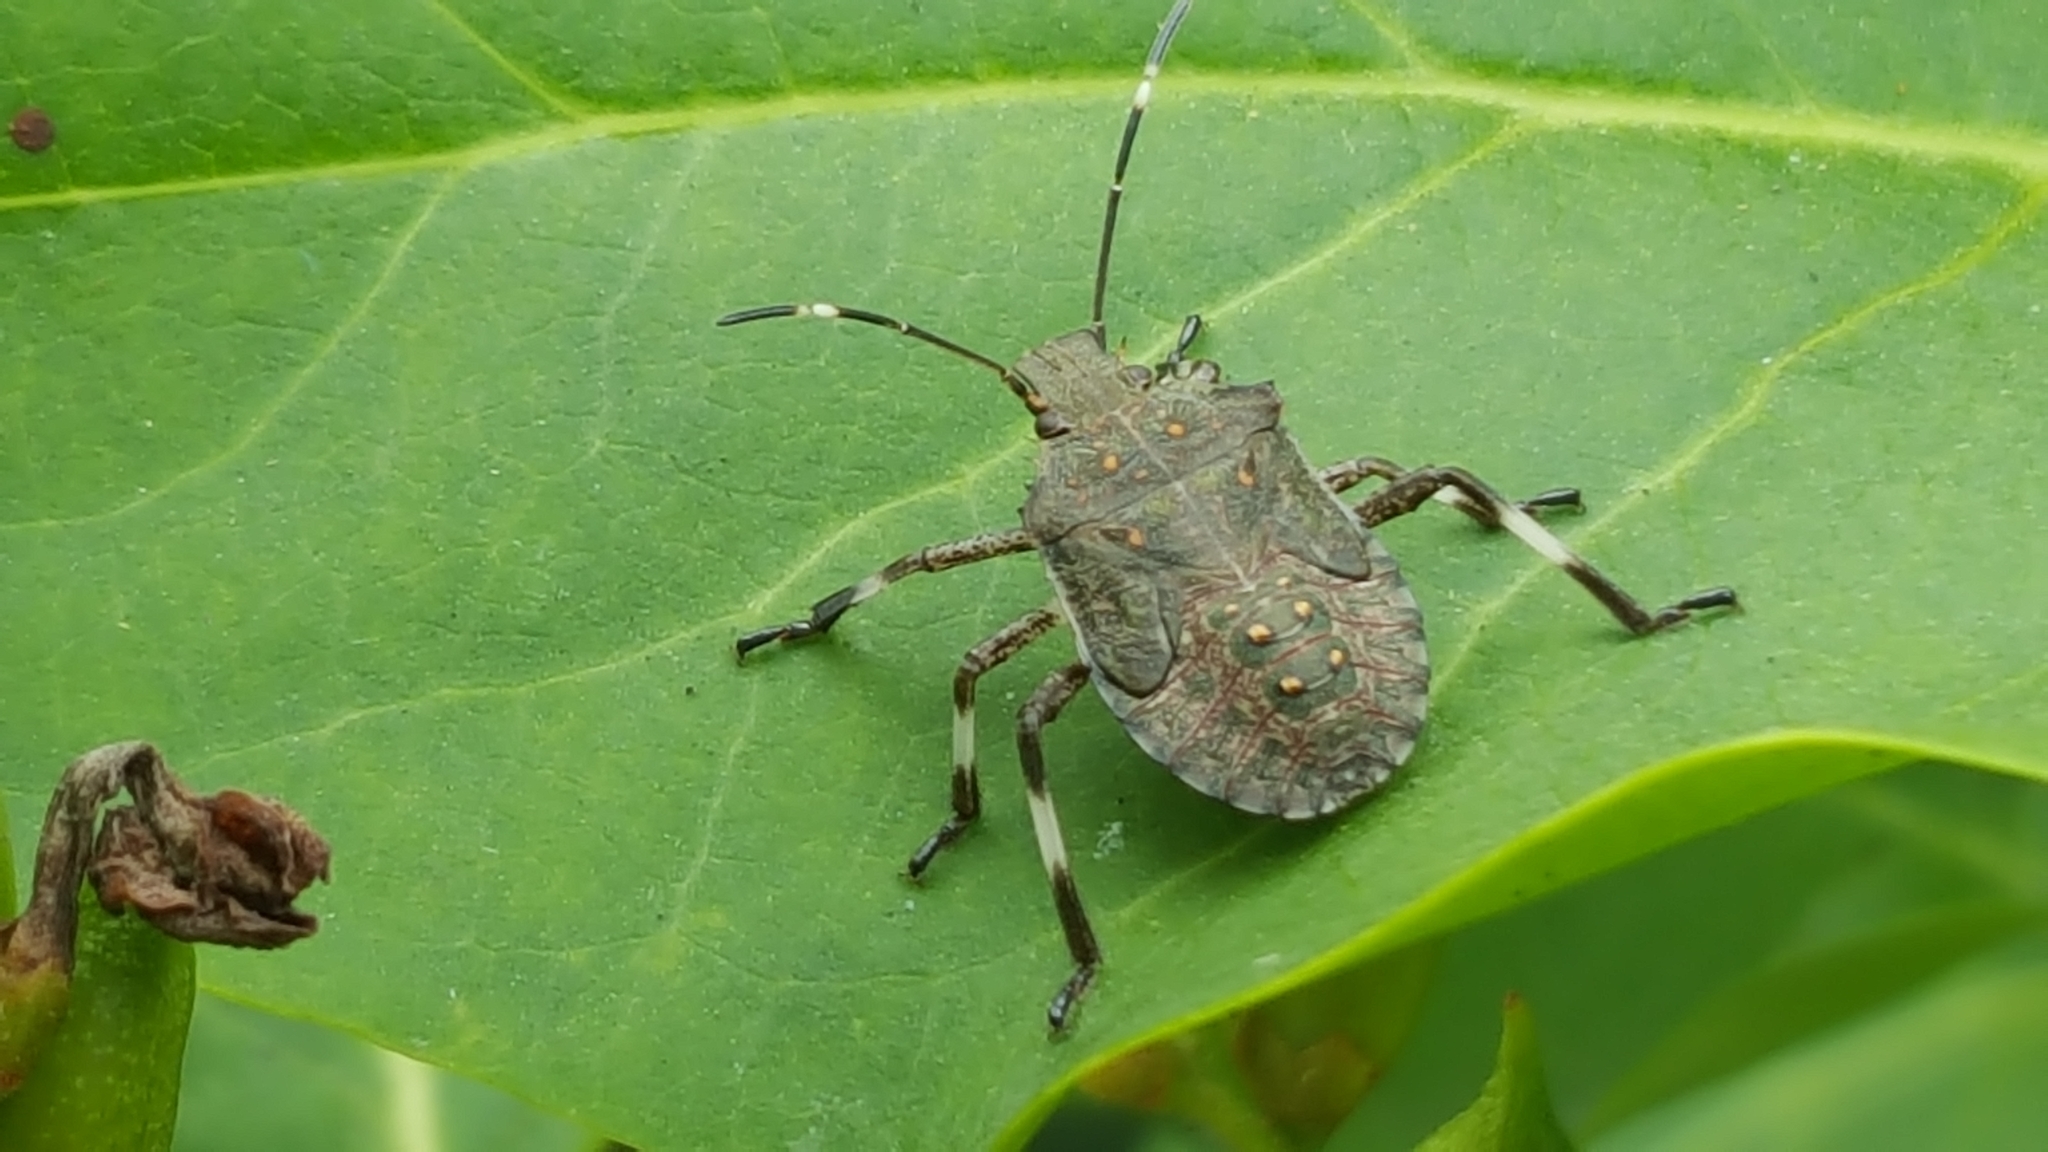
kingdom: Animalia
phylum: Arthropoda
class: Insecta
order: Hemiptera
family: Pentatomidae
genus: Halyomorpha
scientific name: Halyomorpha halys
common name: Brown marmorated stink bug
